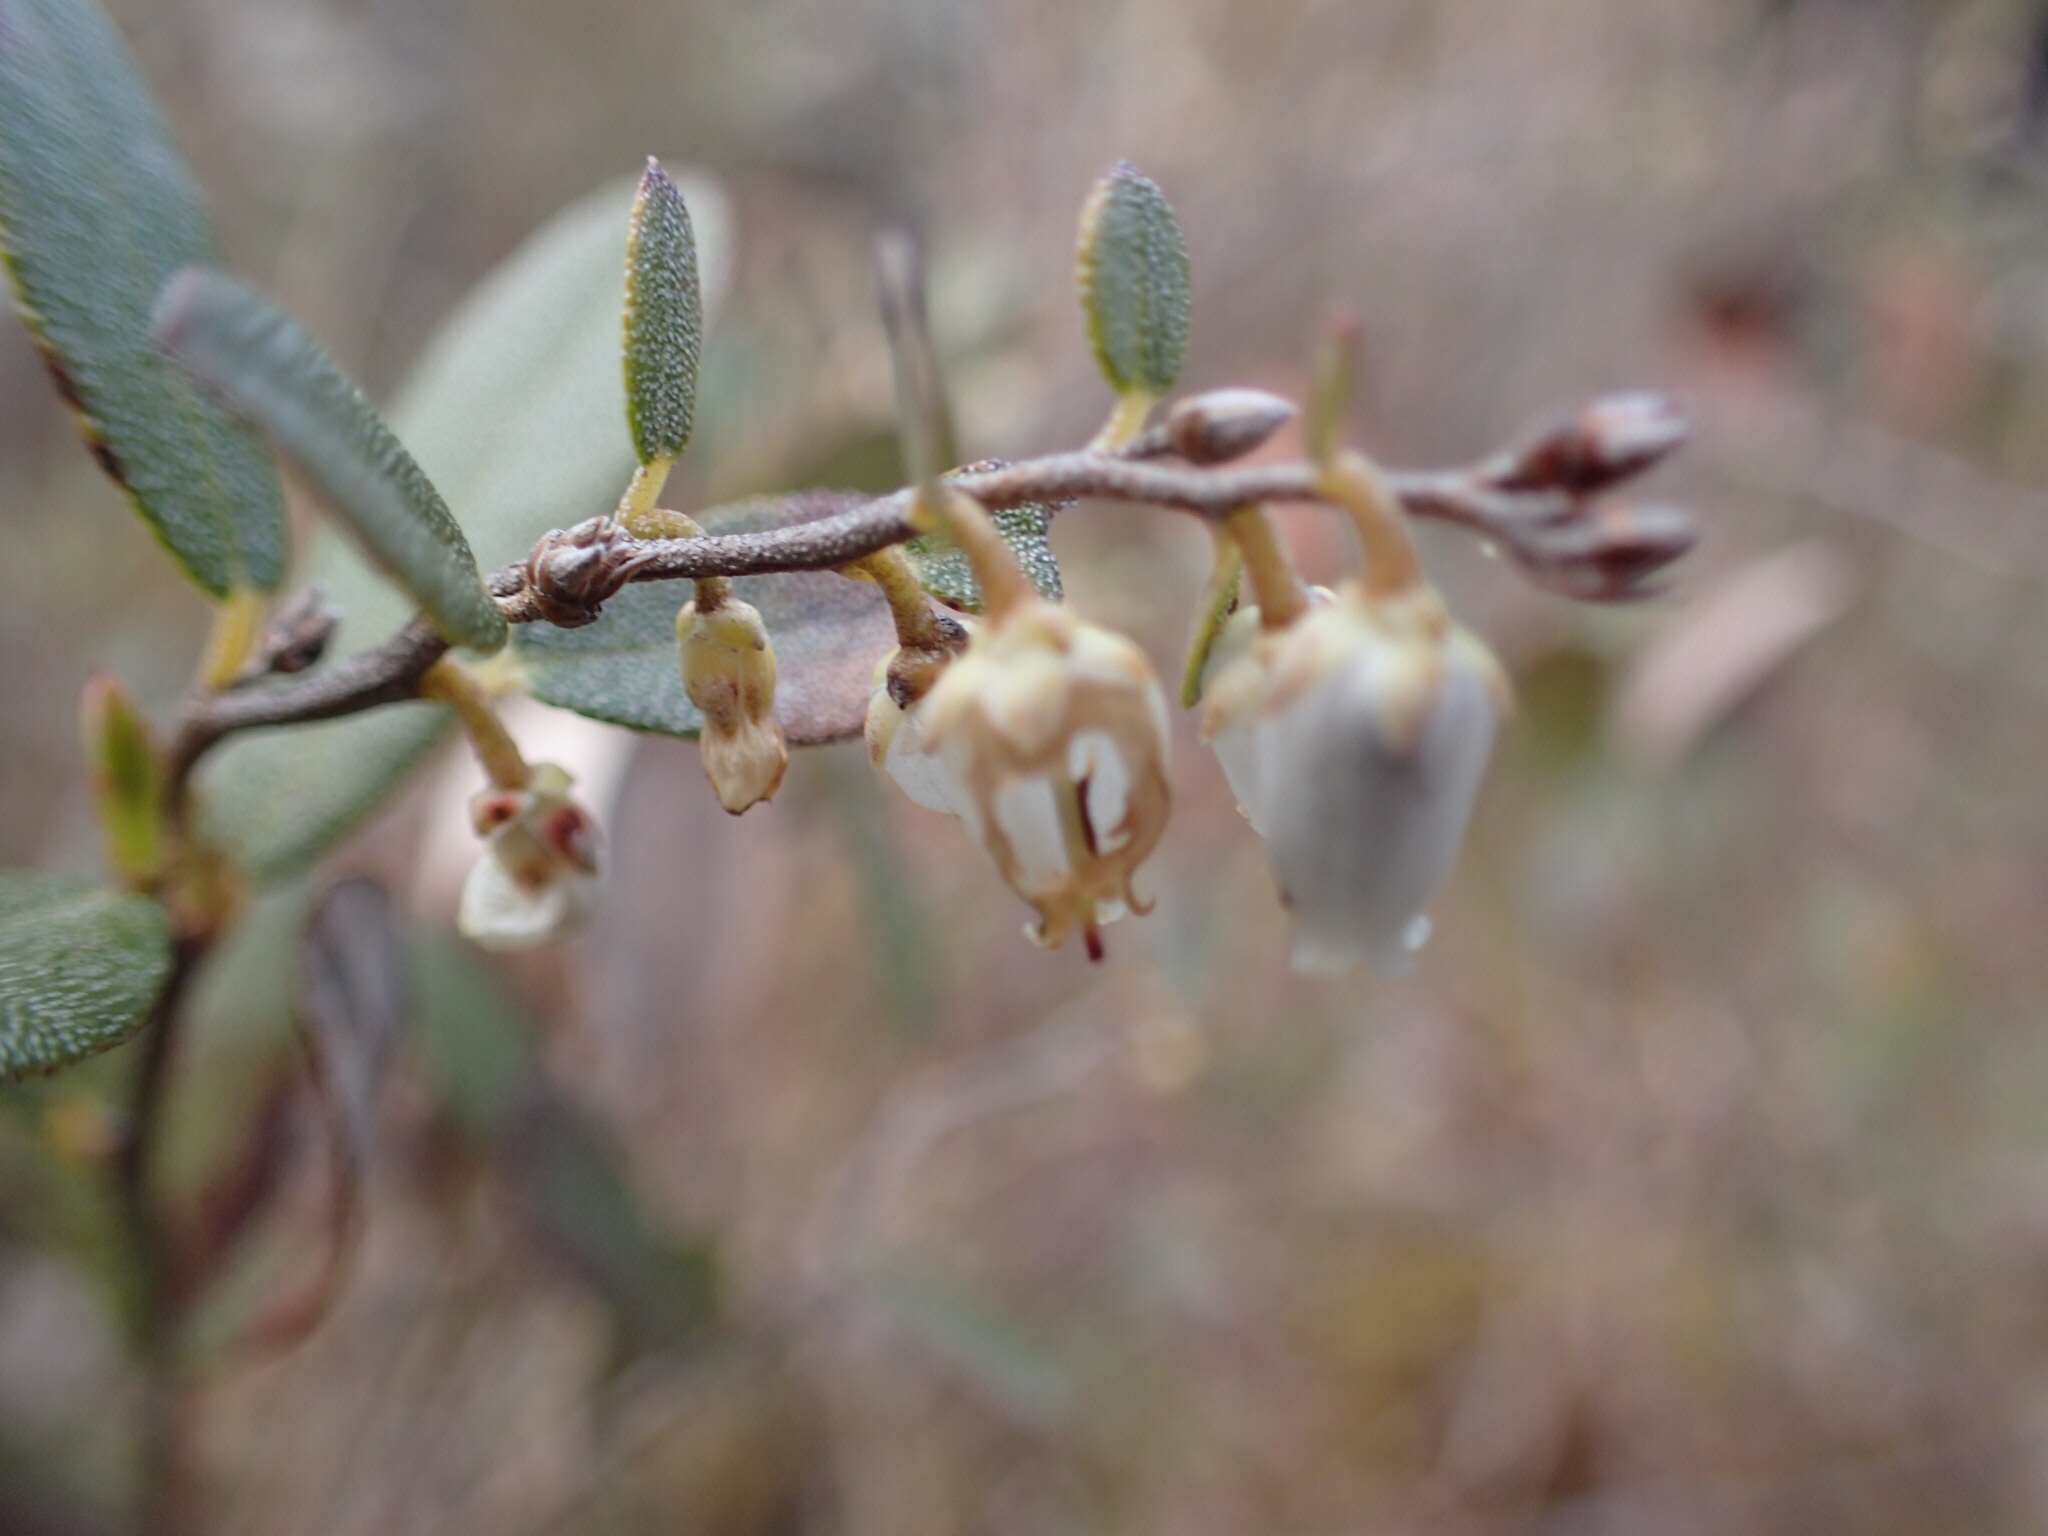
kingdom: Plantae
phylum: Tracheophyta
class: Magnoliopsida
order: Ericales
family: Ericaceae
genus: Chamaedaphne
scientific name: Chamaedaphne calyculata
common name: Leatherleaf
